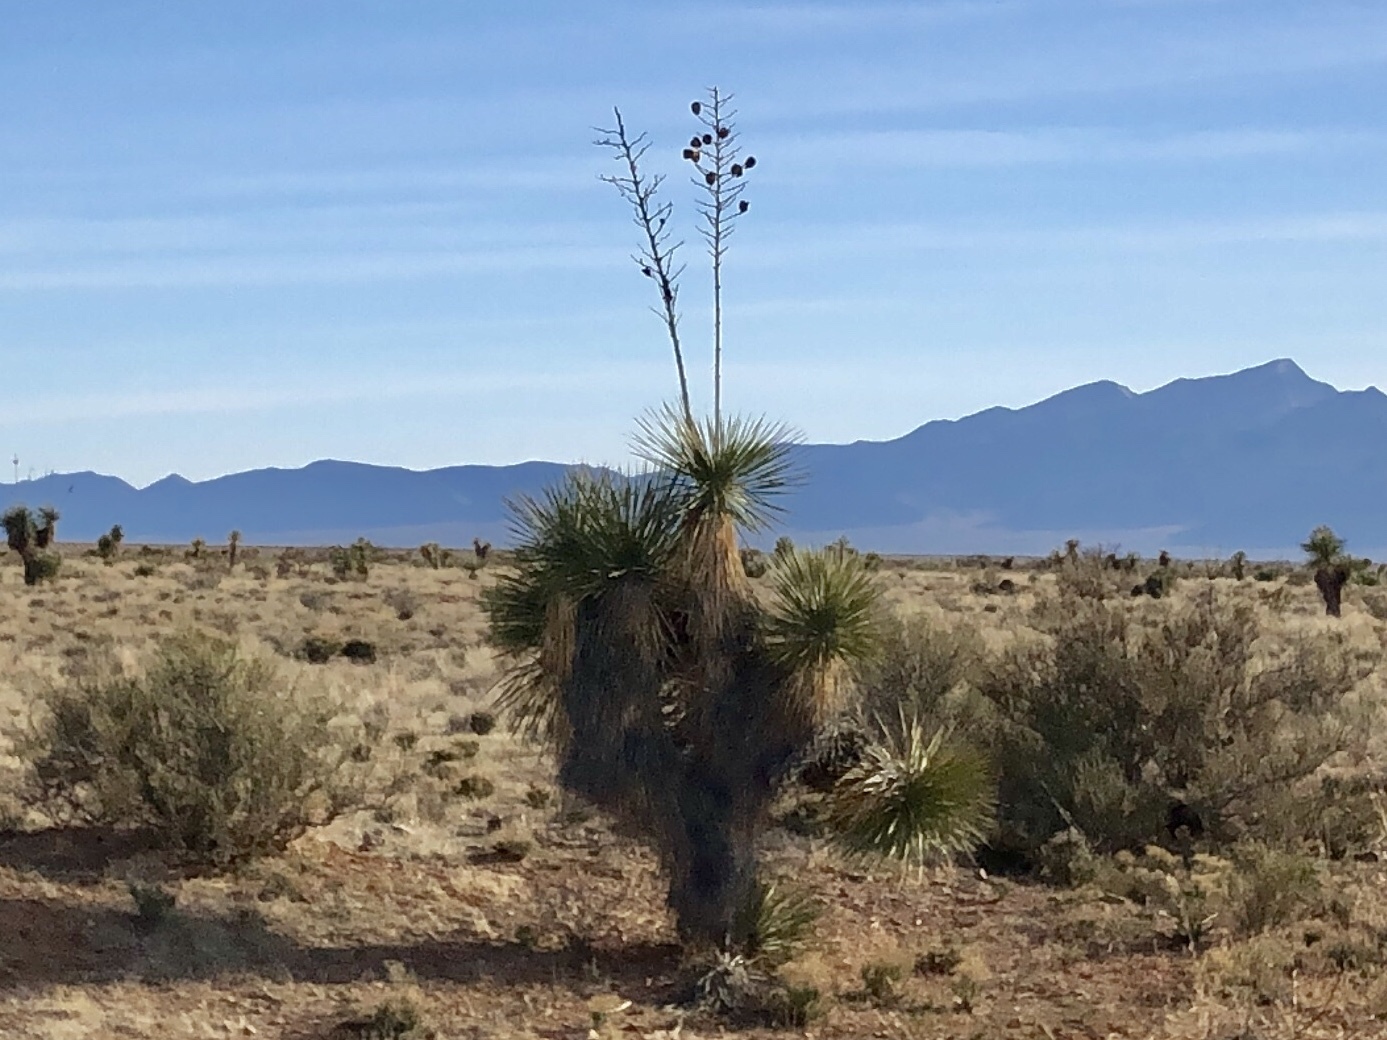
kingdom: Plantae
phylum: Tracheophyta
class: Liliopsida
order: Asparagales
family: Asparagaceae
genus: Yucca
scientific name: Yucca elata
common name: Palmella
